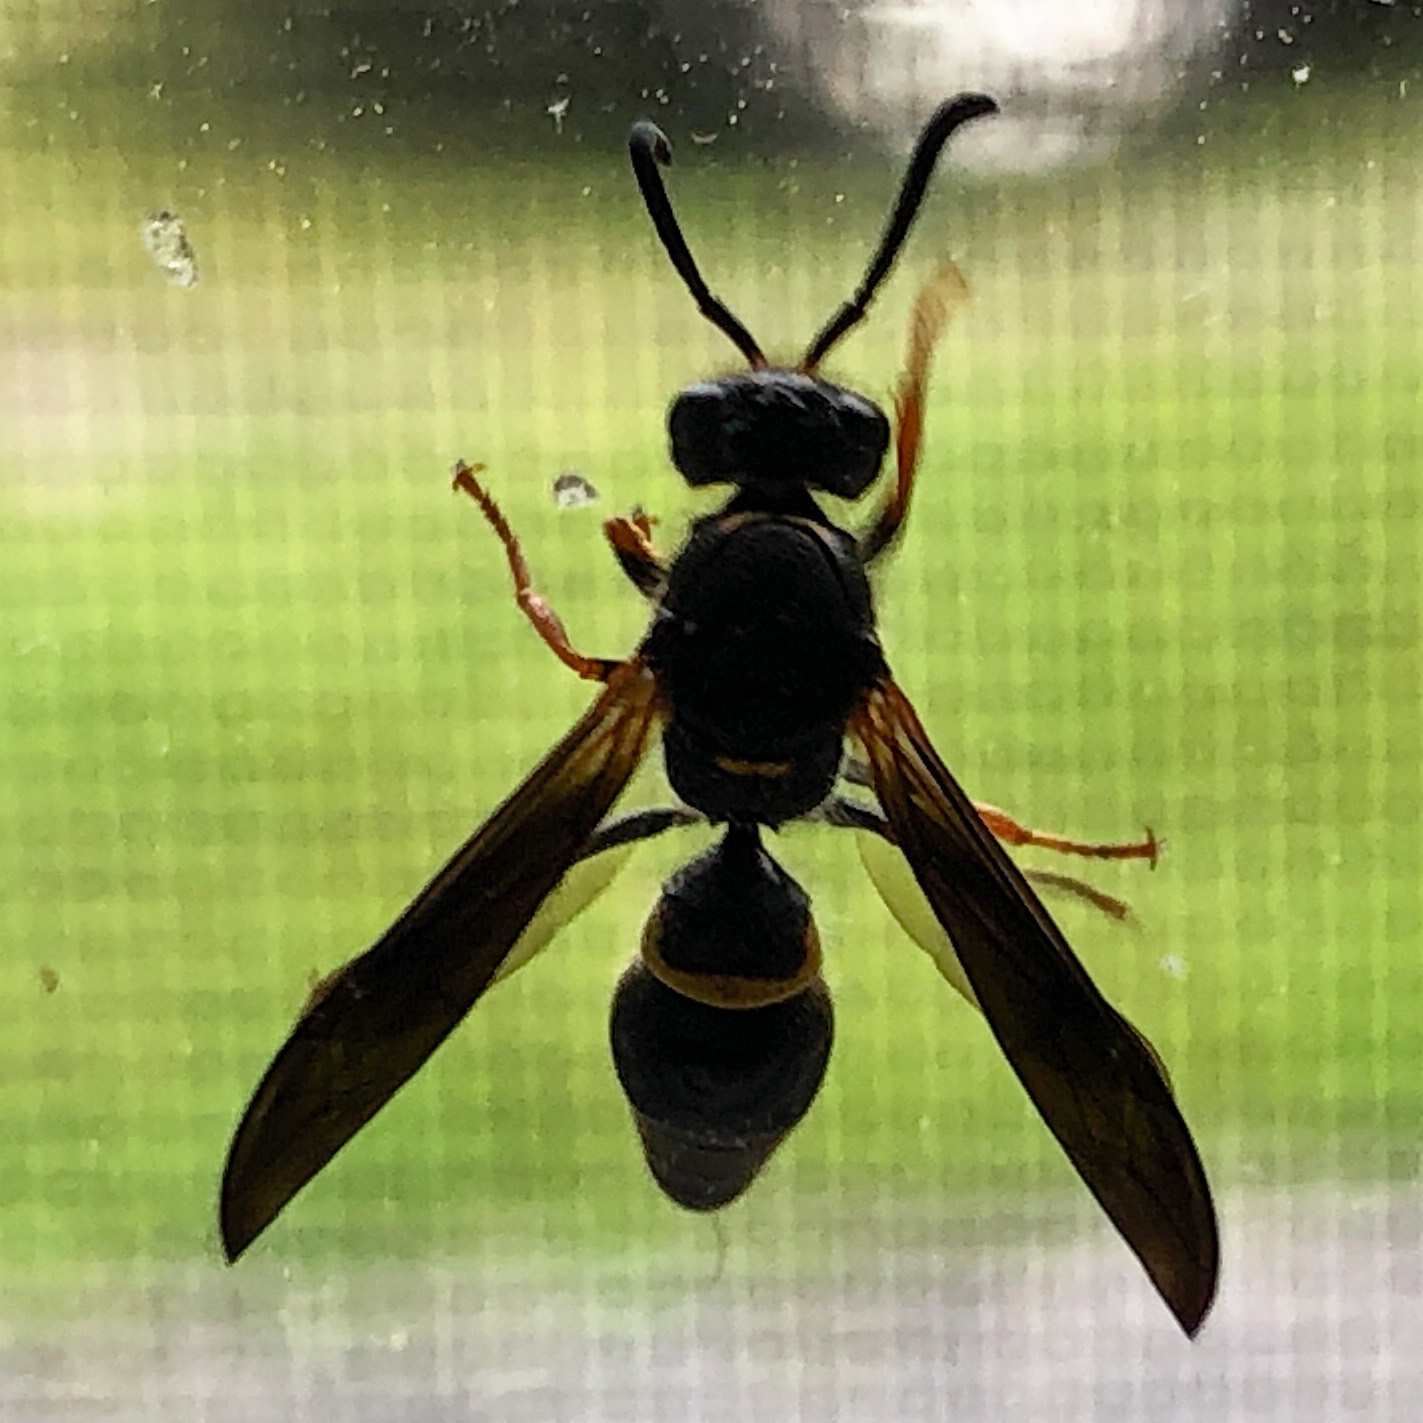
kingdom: Animalia
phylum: Arthropoda
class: Insecta
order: Hymenoptera
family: Vespidae
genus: Ancistrocerus
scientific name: Ancistrocerus unifasciatus
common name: One-banded mason wasp
